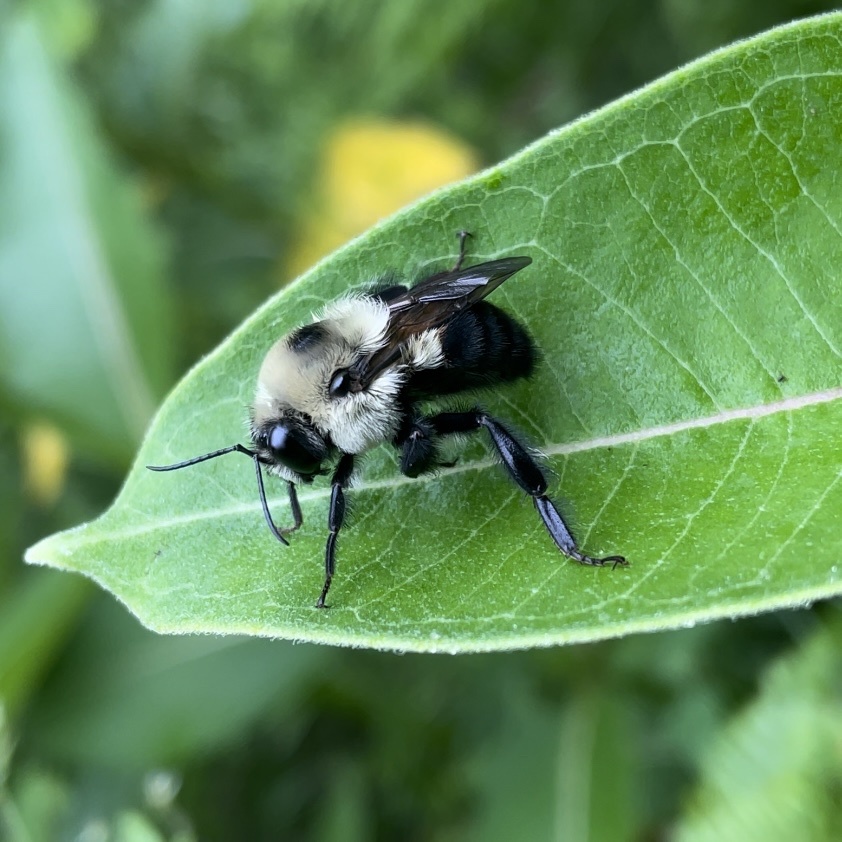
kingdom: Animalia
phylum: Arthropoda
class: Insecta
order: Hymenoptera
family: Apidae
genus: Bombus
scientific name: Bombus griseocollis
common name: Brown-belted bumble bee
